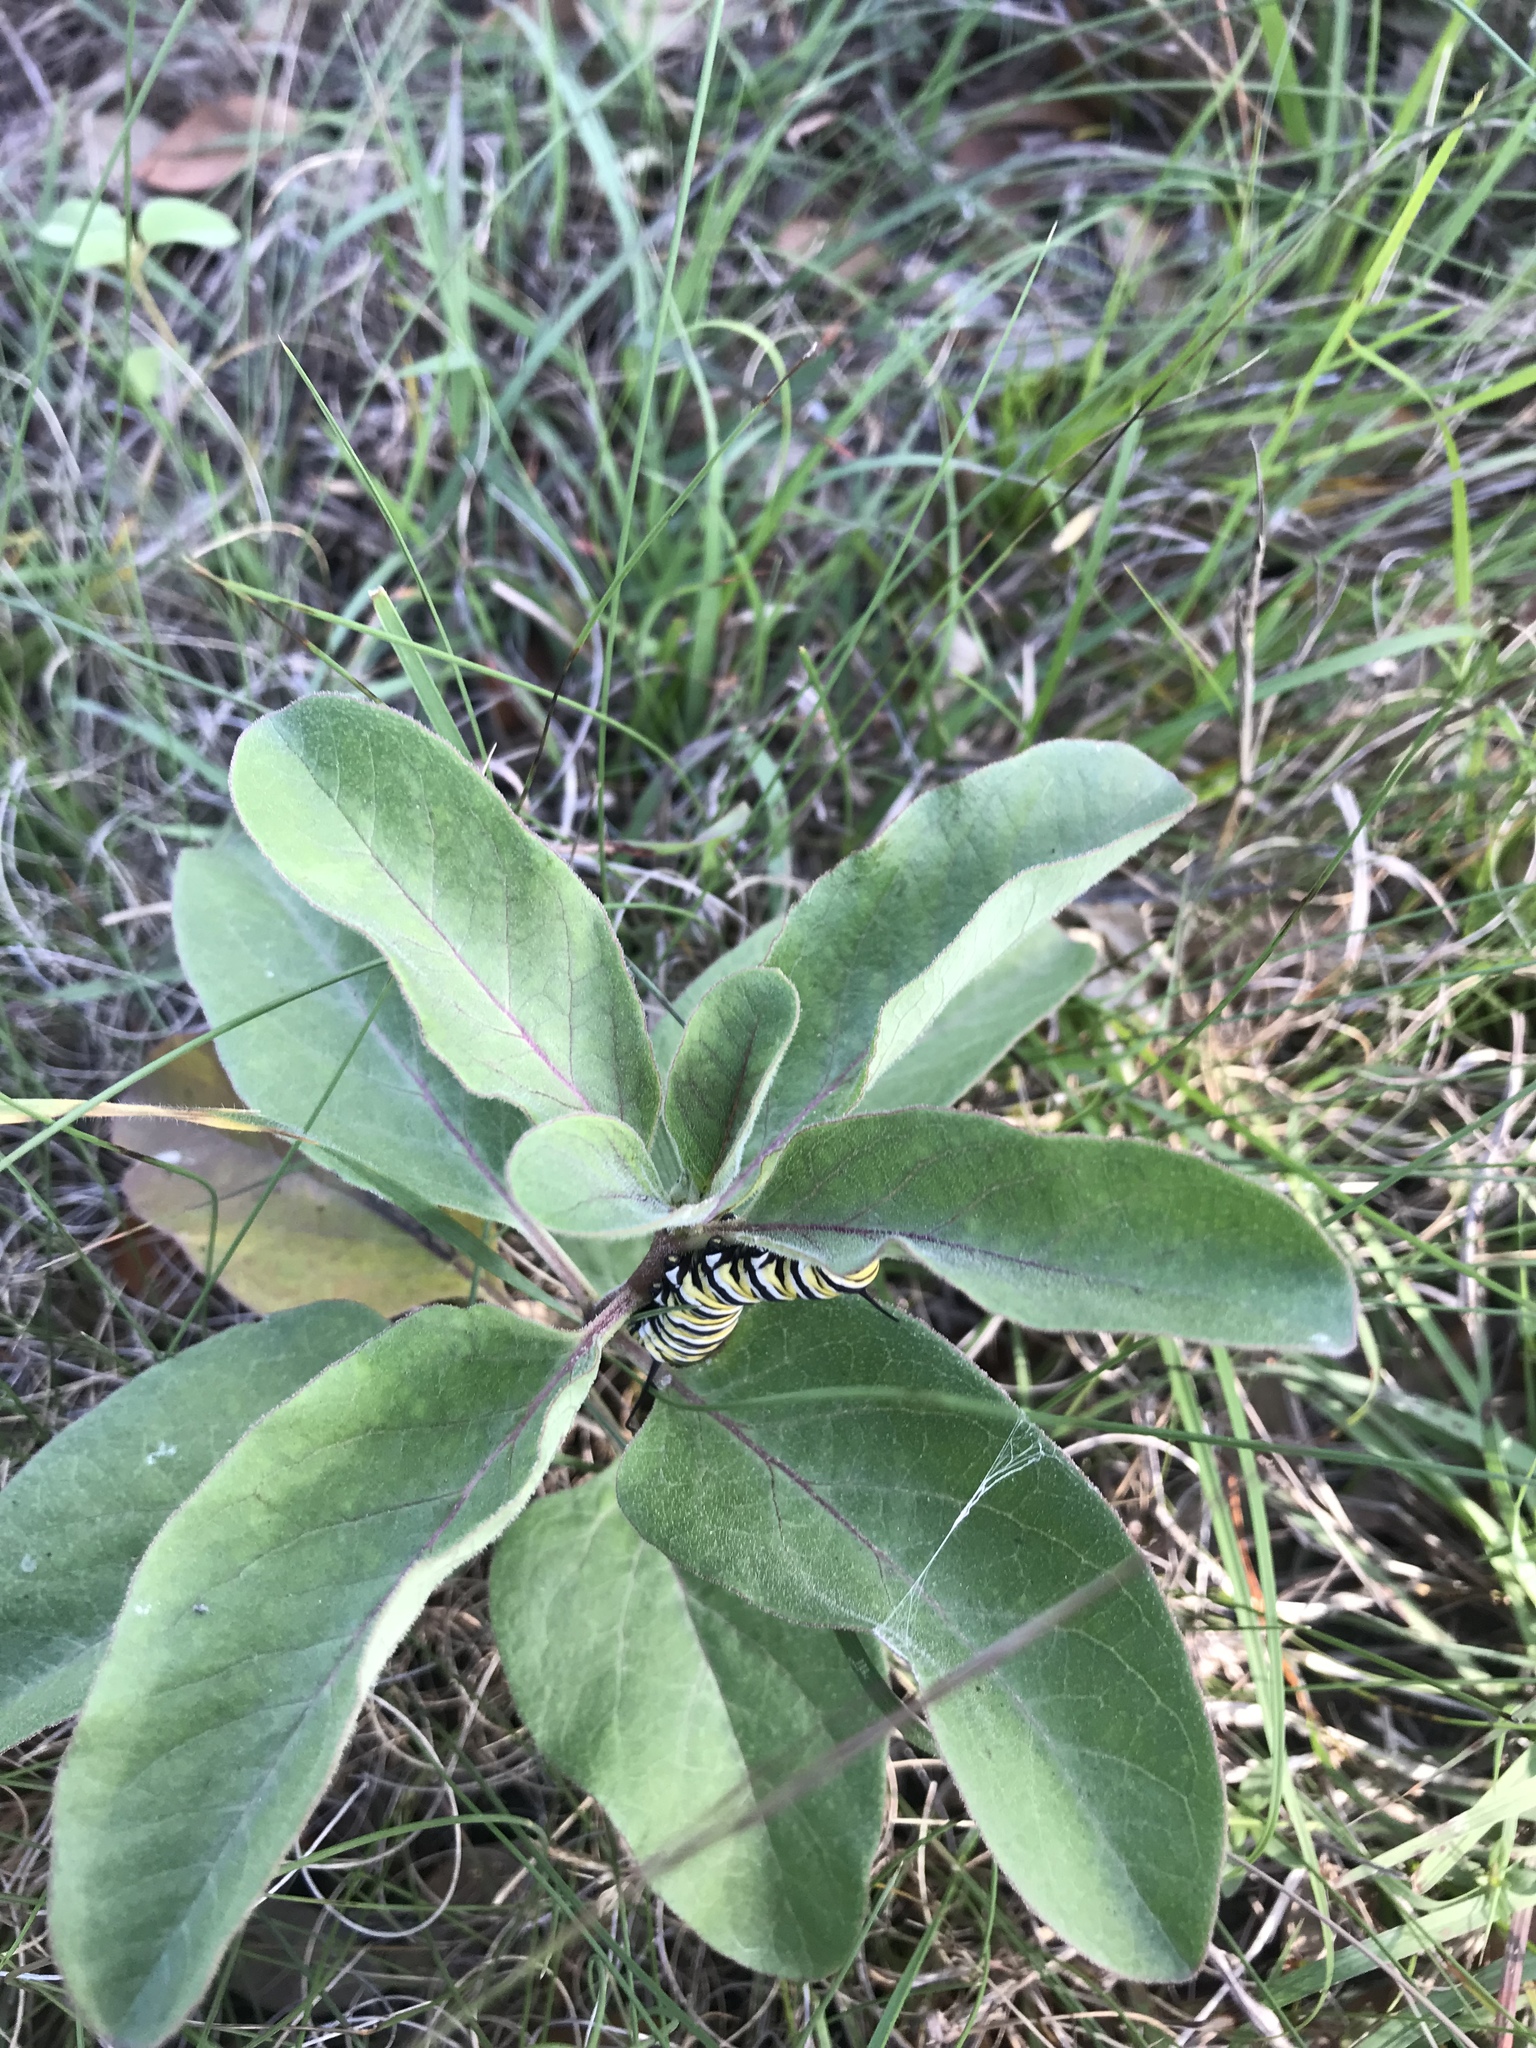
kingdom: Animalia
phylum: Arthropoda
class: Insecta
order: Lepidoptera
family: Nymphalidae
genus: Danaus
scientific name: Danaus plexippus
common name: Monarch
